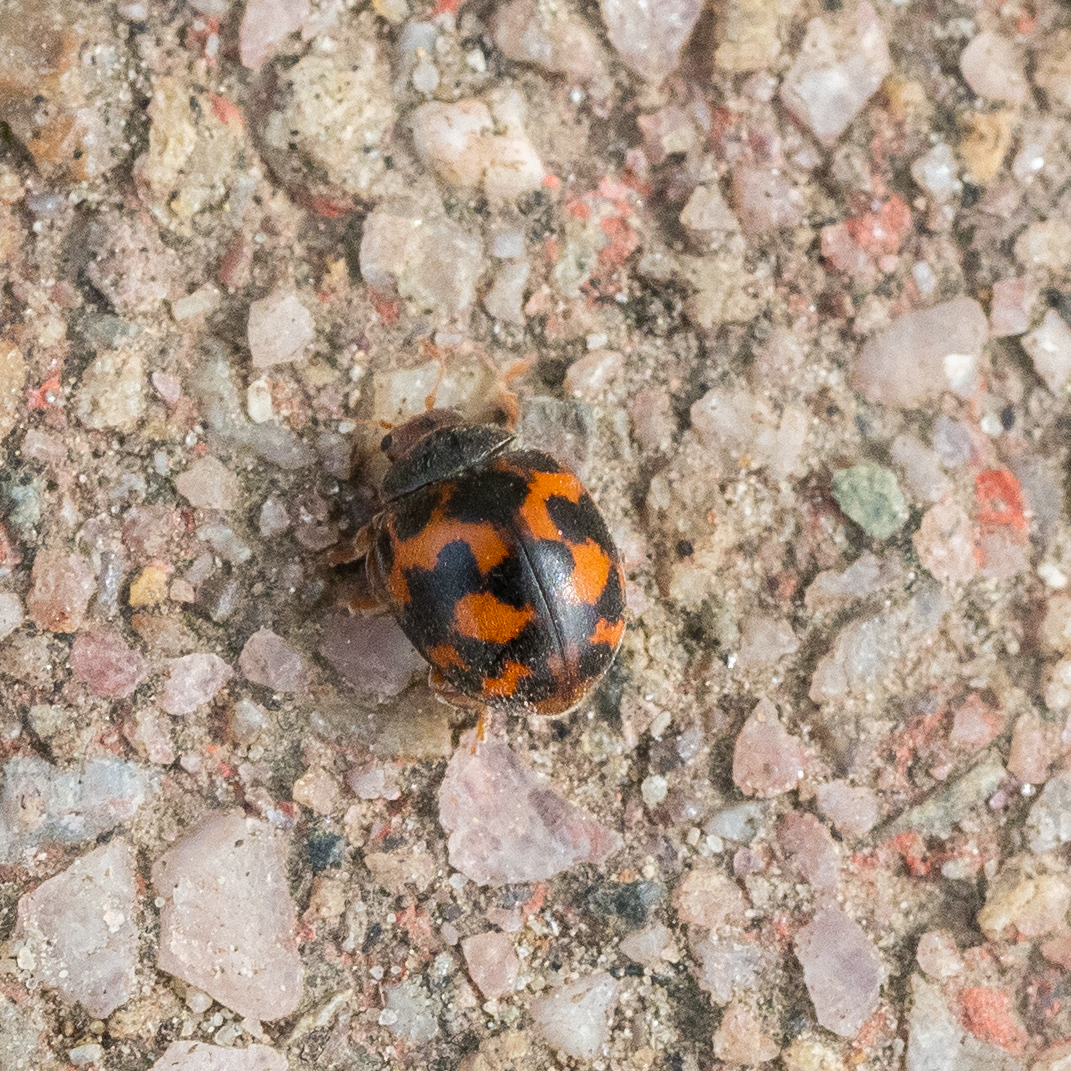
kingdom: Animalia
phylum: Arthropoda
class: Insecta
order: Coleoptera
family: Coccinellidae
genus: Subcoccinella
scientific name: Subcoccinella vigintiquatuorpunctata
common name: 24-spot ladybird
